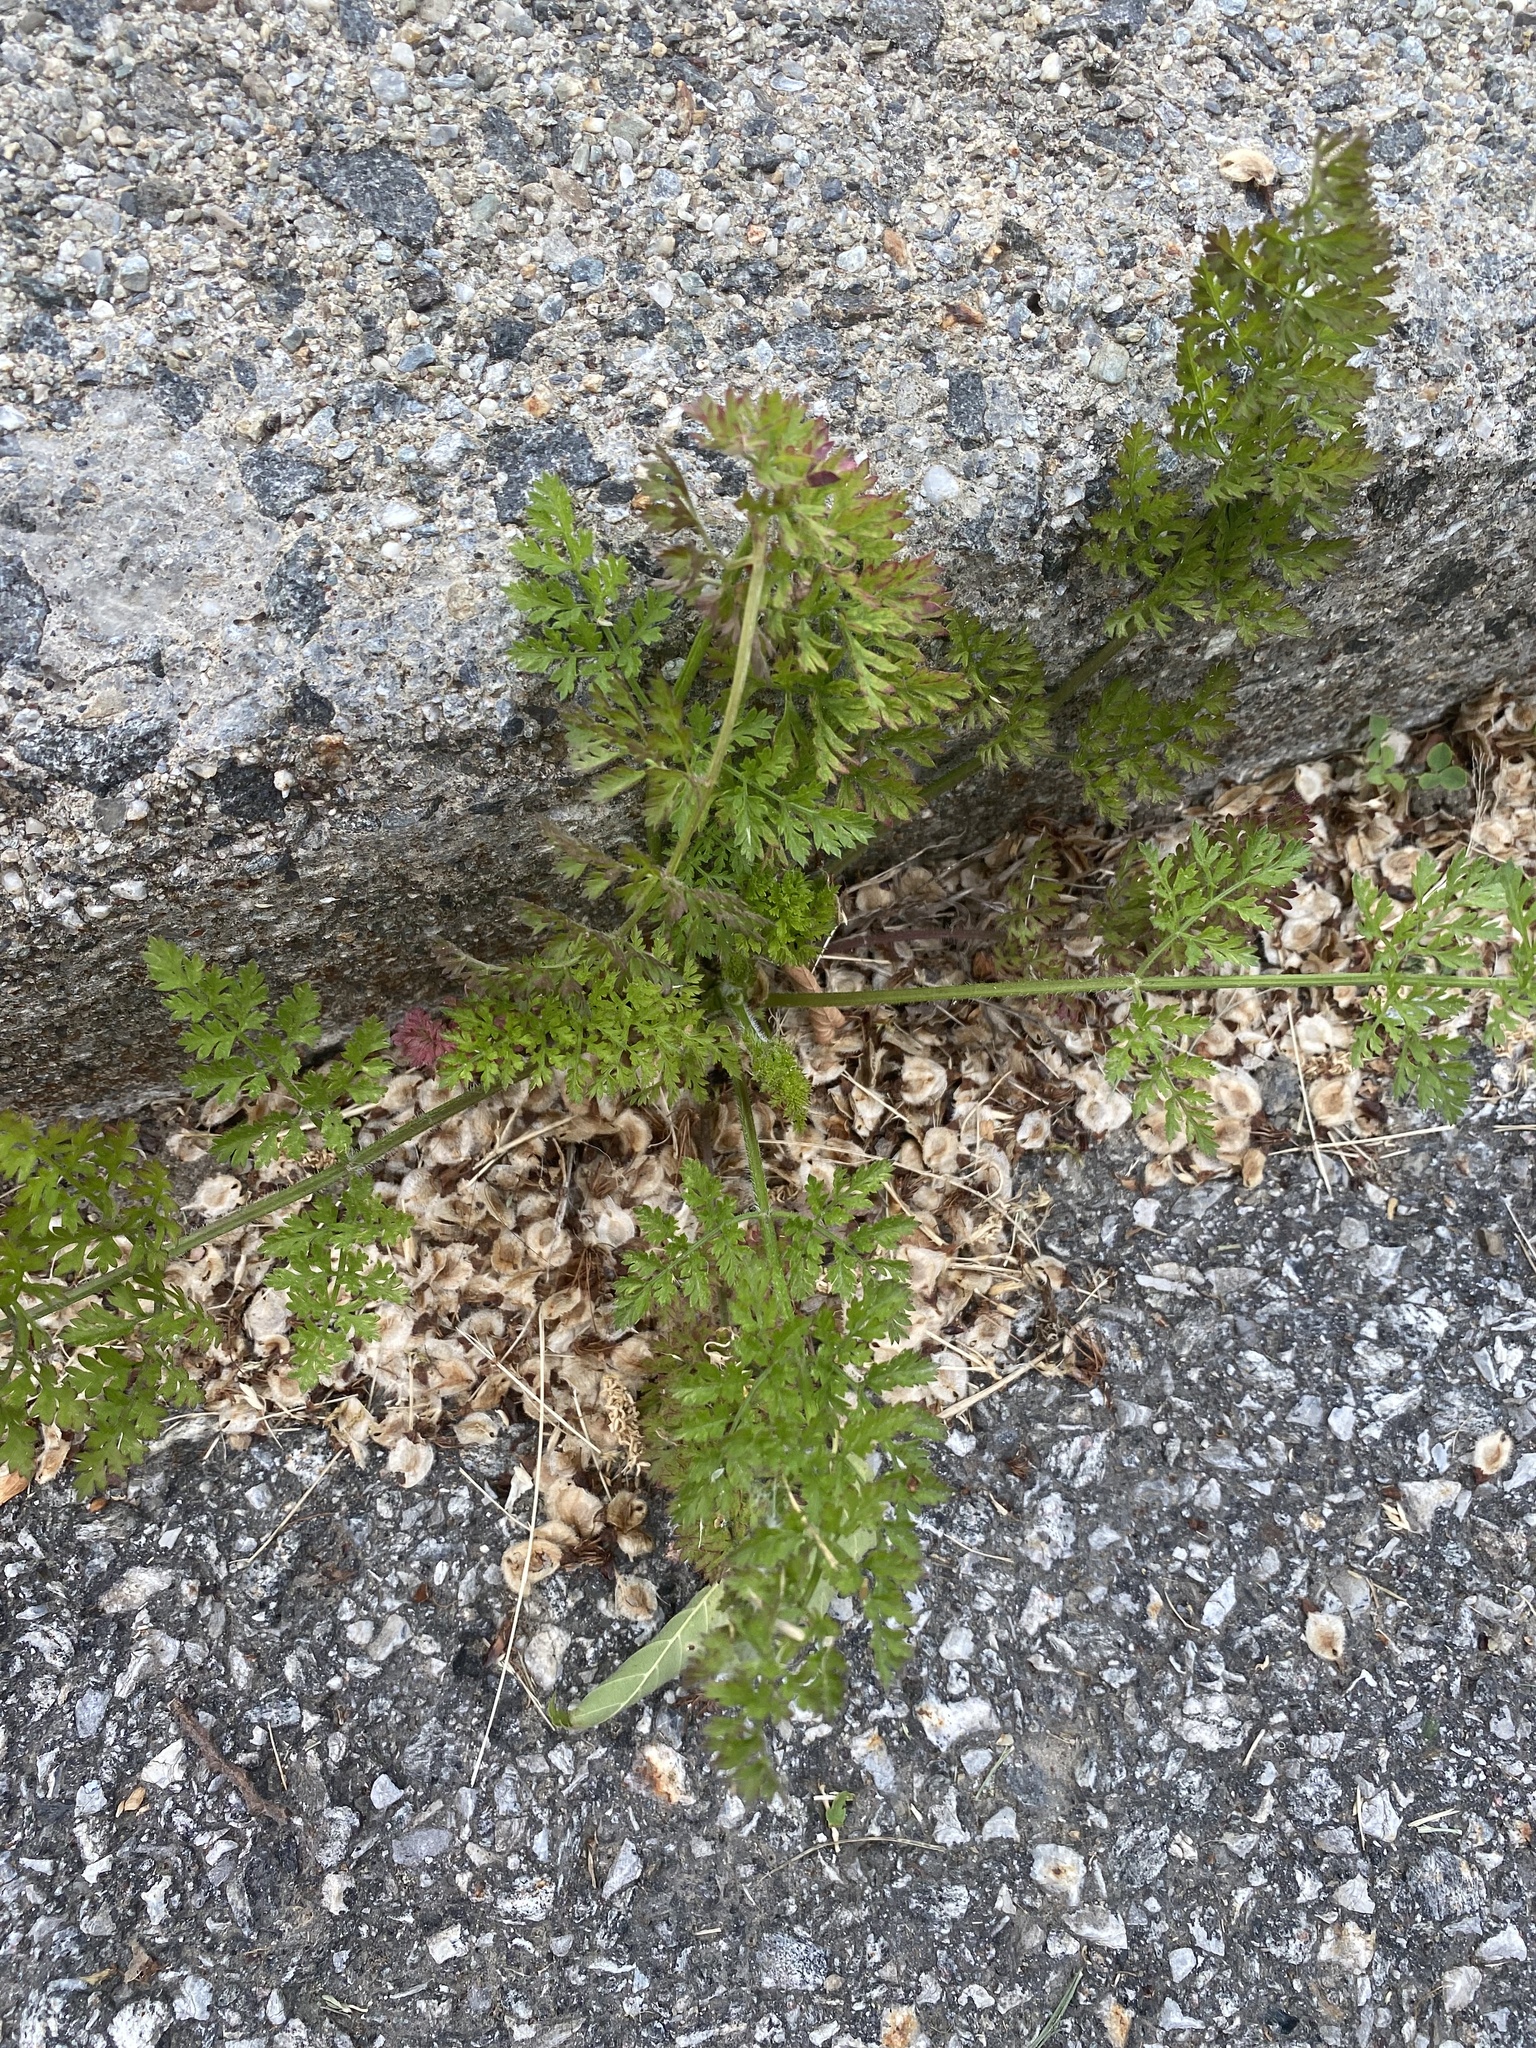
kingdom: Plantae
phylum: Tracheophyta
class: Magnoliopsida
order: Apiales
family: Apiaceae
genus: Daucus
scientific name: Daucus carota
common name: Wild carrot
